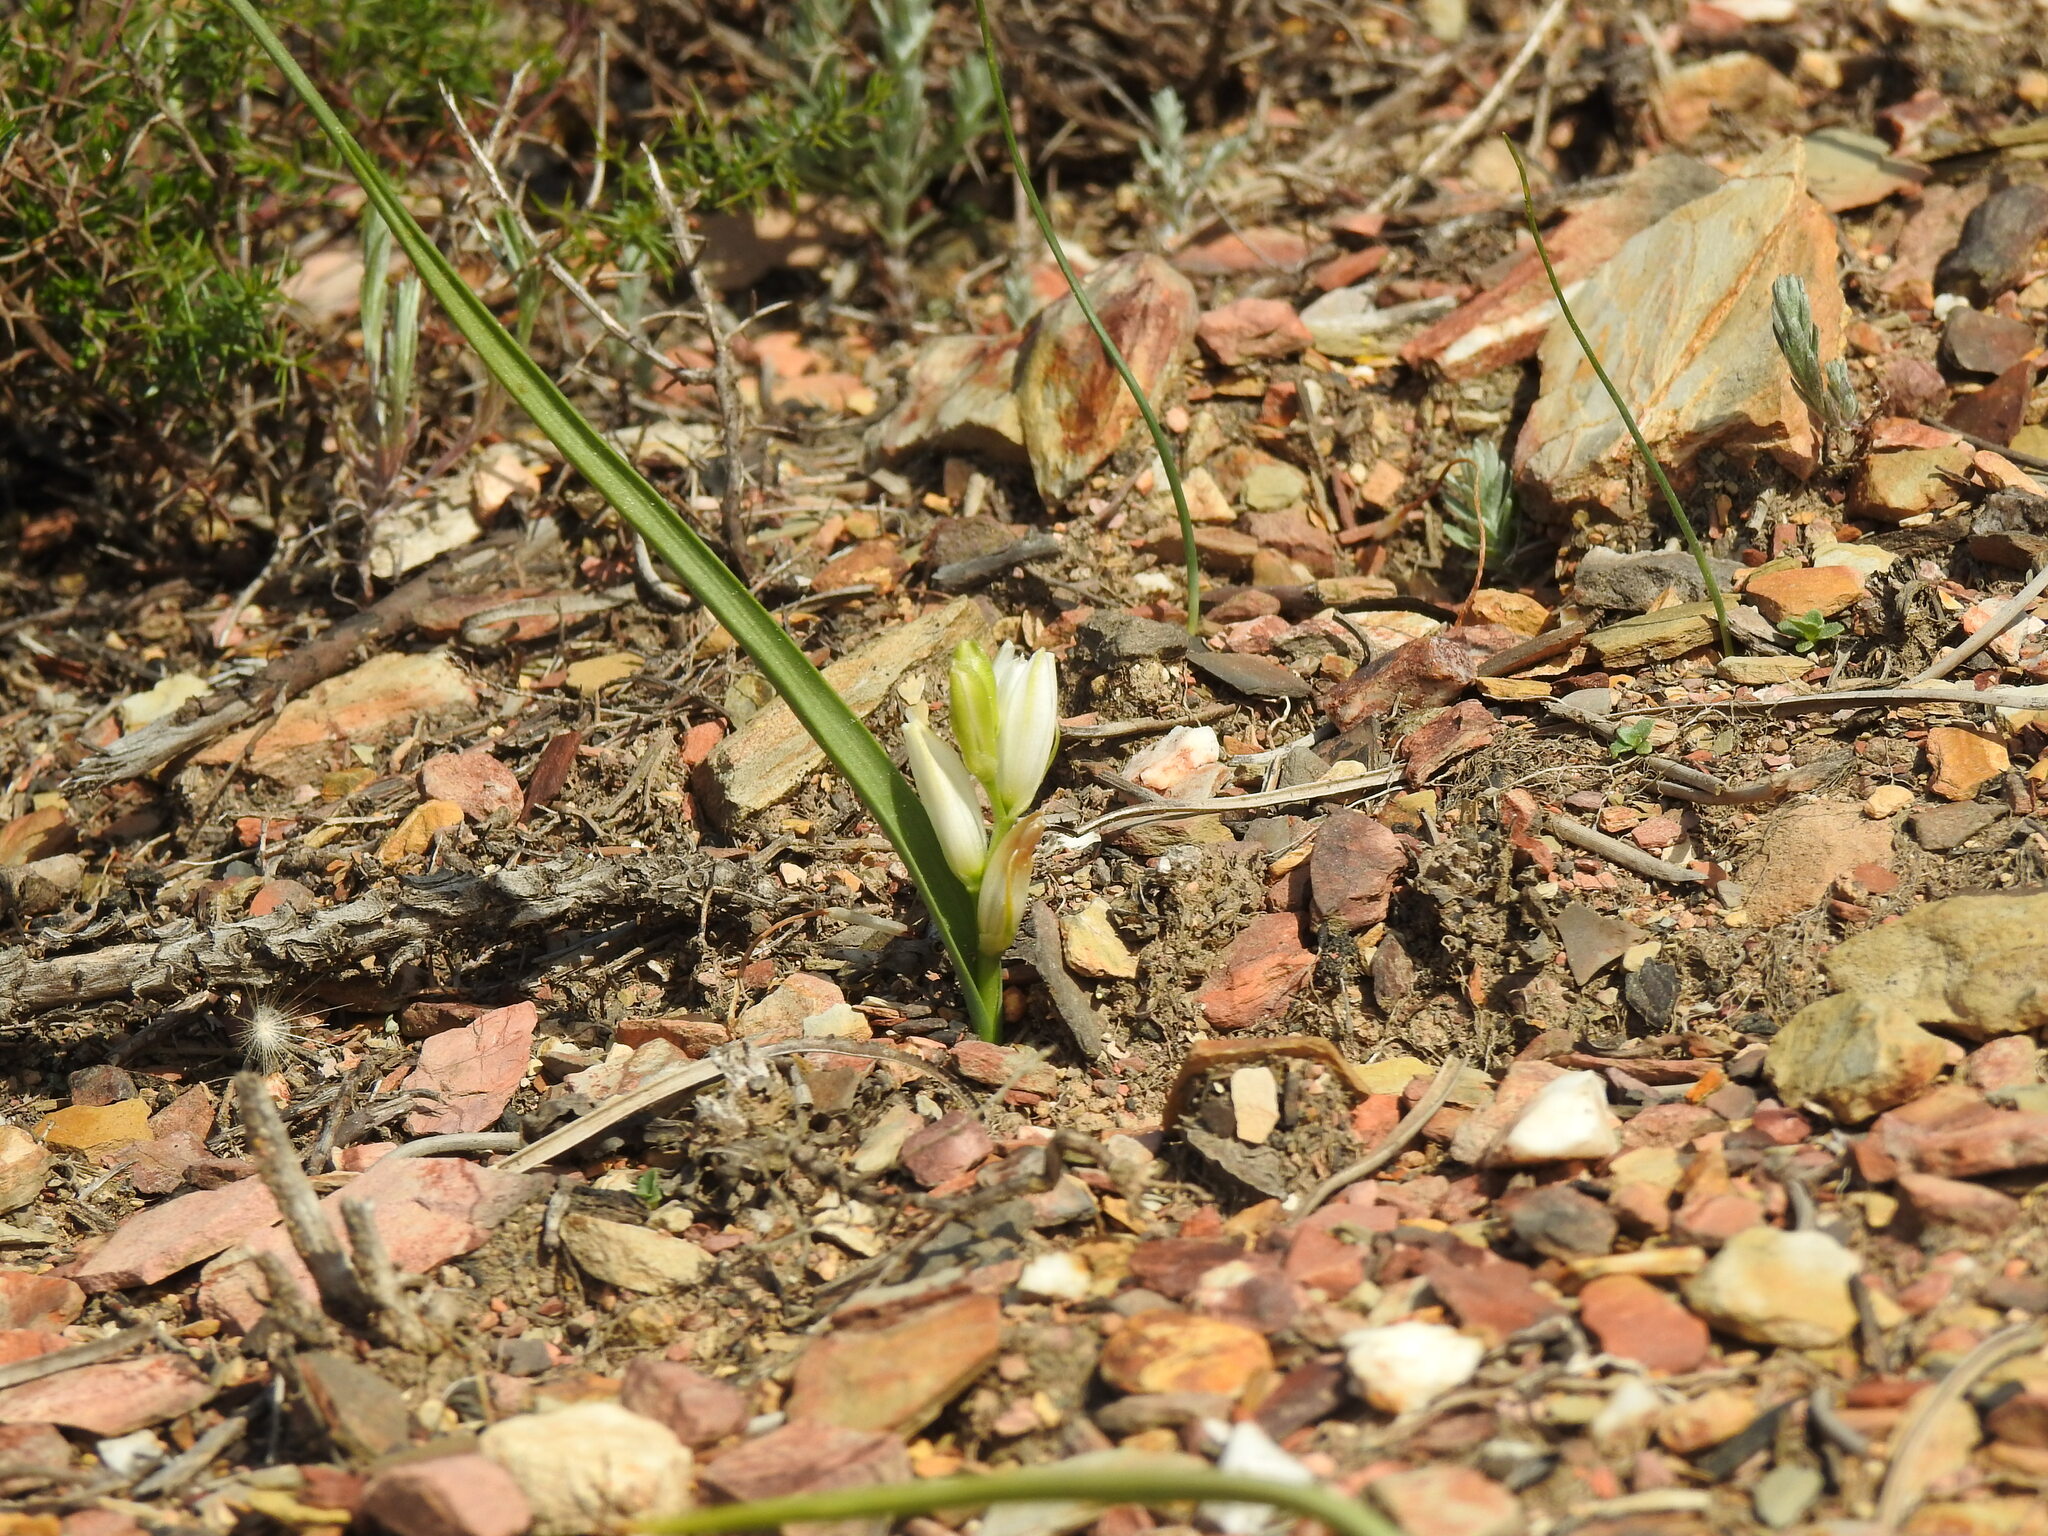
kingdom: Plantae
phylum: Tracheophyta
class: Liliopsida
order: Asparagales
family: Asparagaceae
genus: Ornithogalum
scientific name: Ornithogalum broteroi
